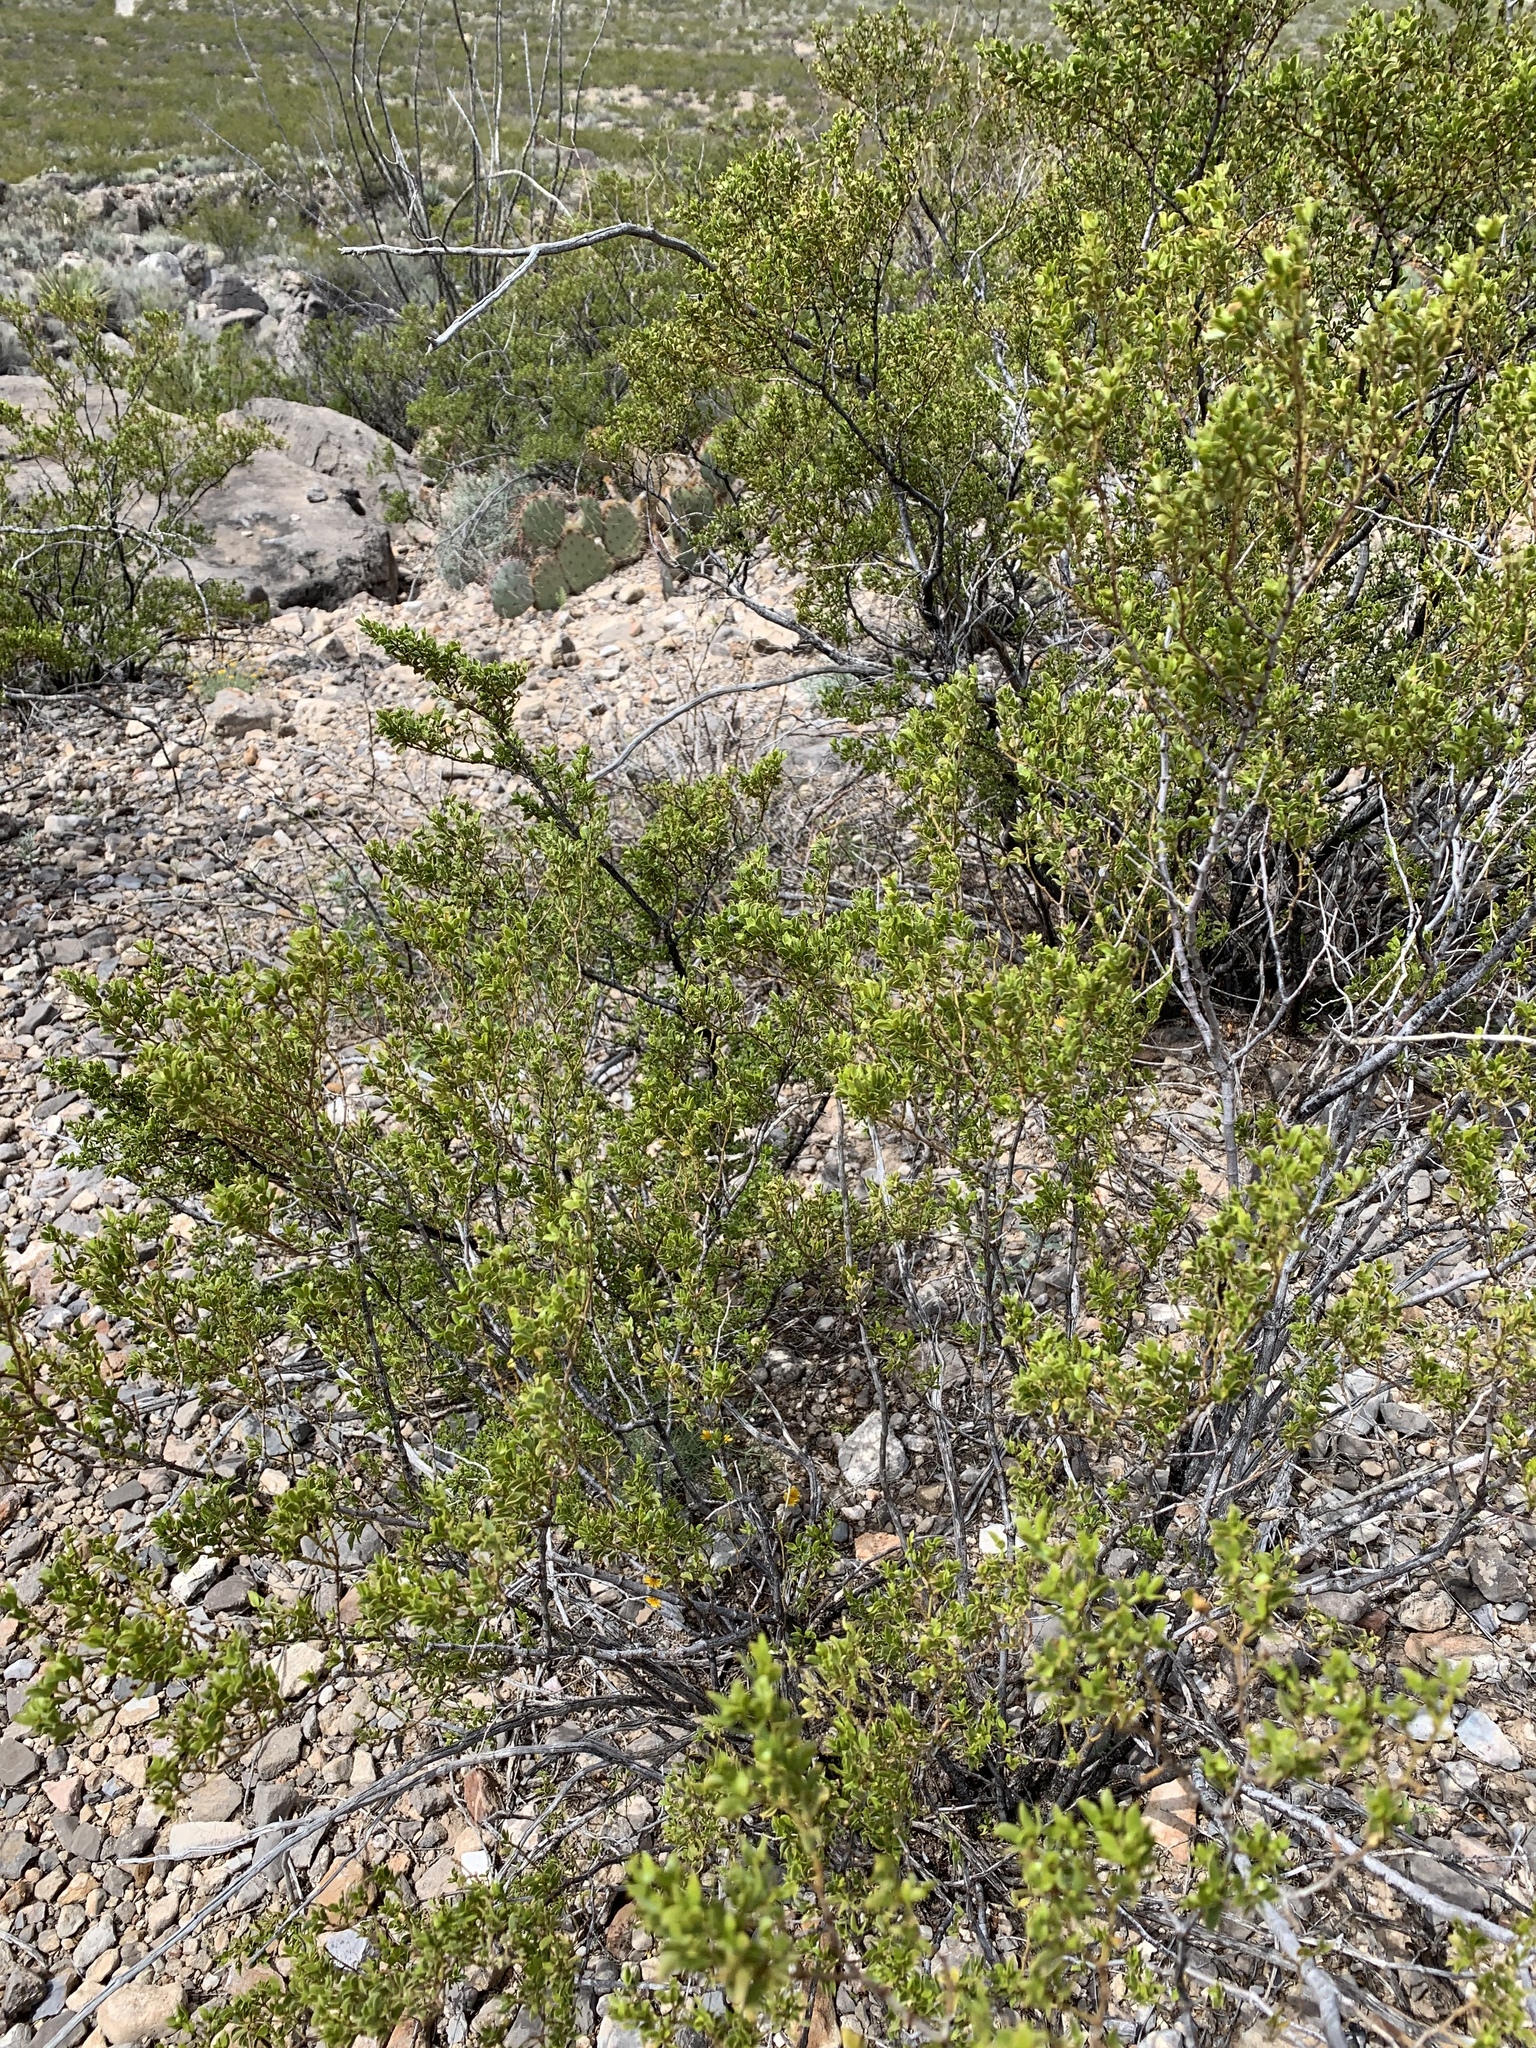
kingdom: Plantae
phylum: Tracheophyta
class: Magnoliopsida
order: Zygophyllales
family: Zygophyllaceae
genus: Larrea
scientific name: Larrea tridentata
